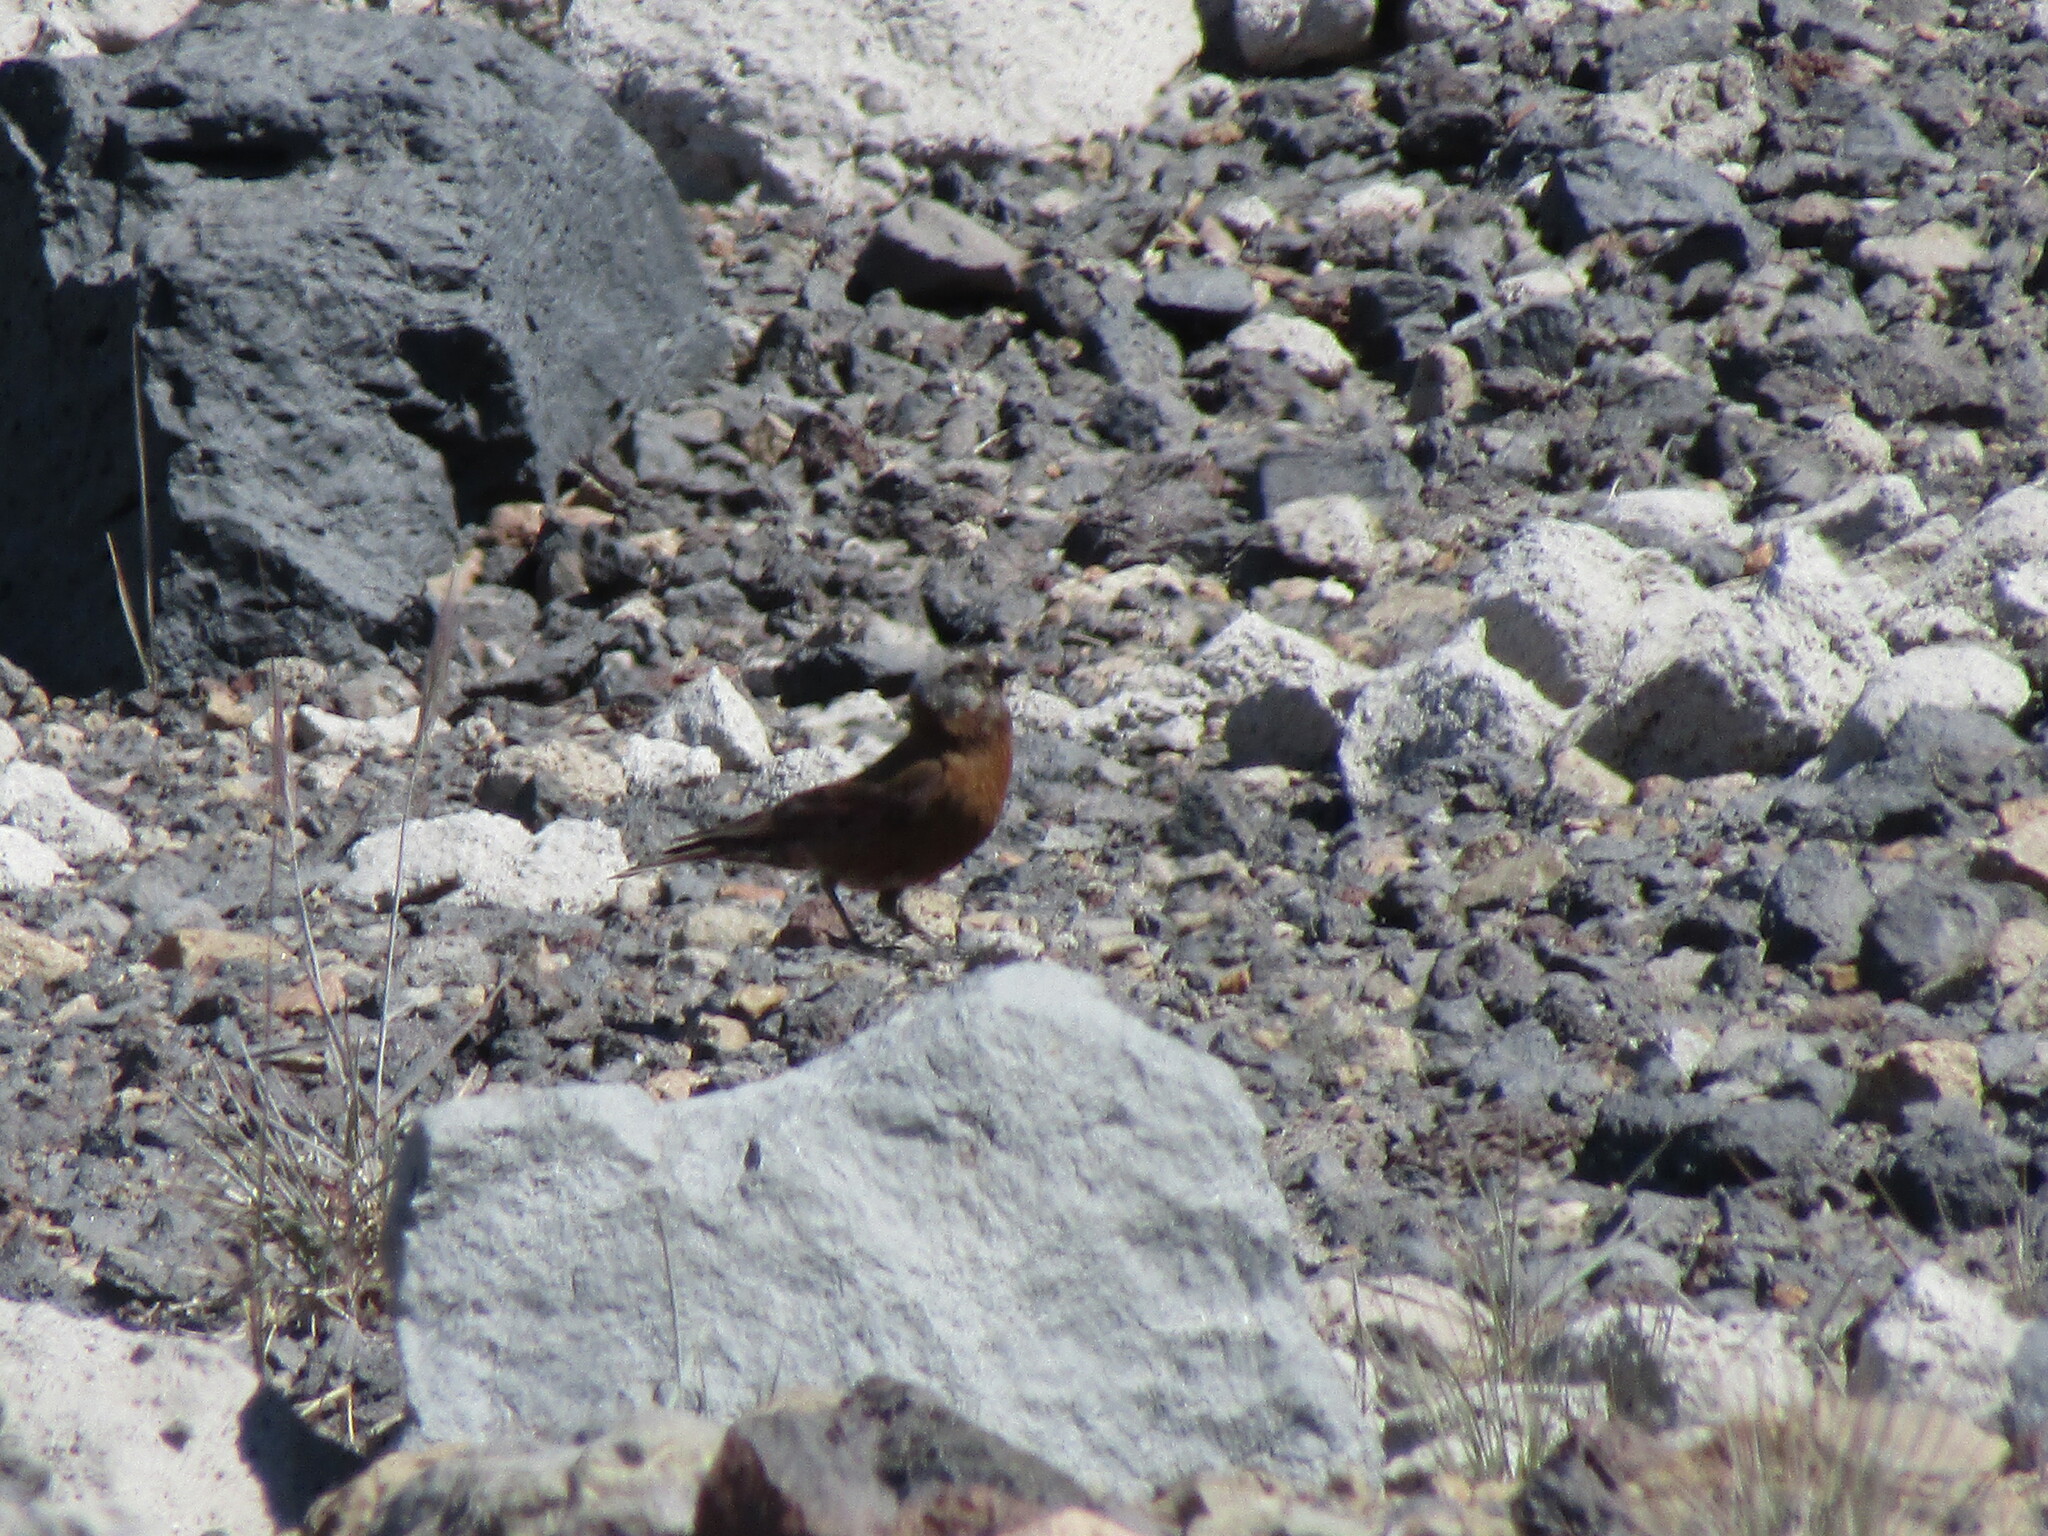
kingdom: Animalia
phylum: Chordata
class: Aves
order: Passeriformes
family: Fringillidae
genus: Leucosticte
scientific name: Leucosticte tephrocotis
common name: Gray-crowned rosy-finch
